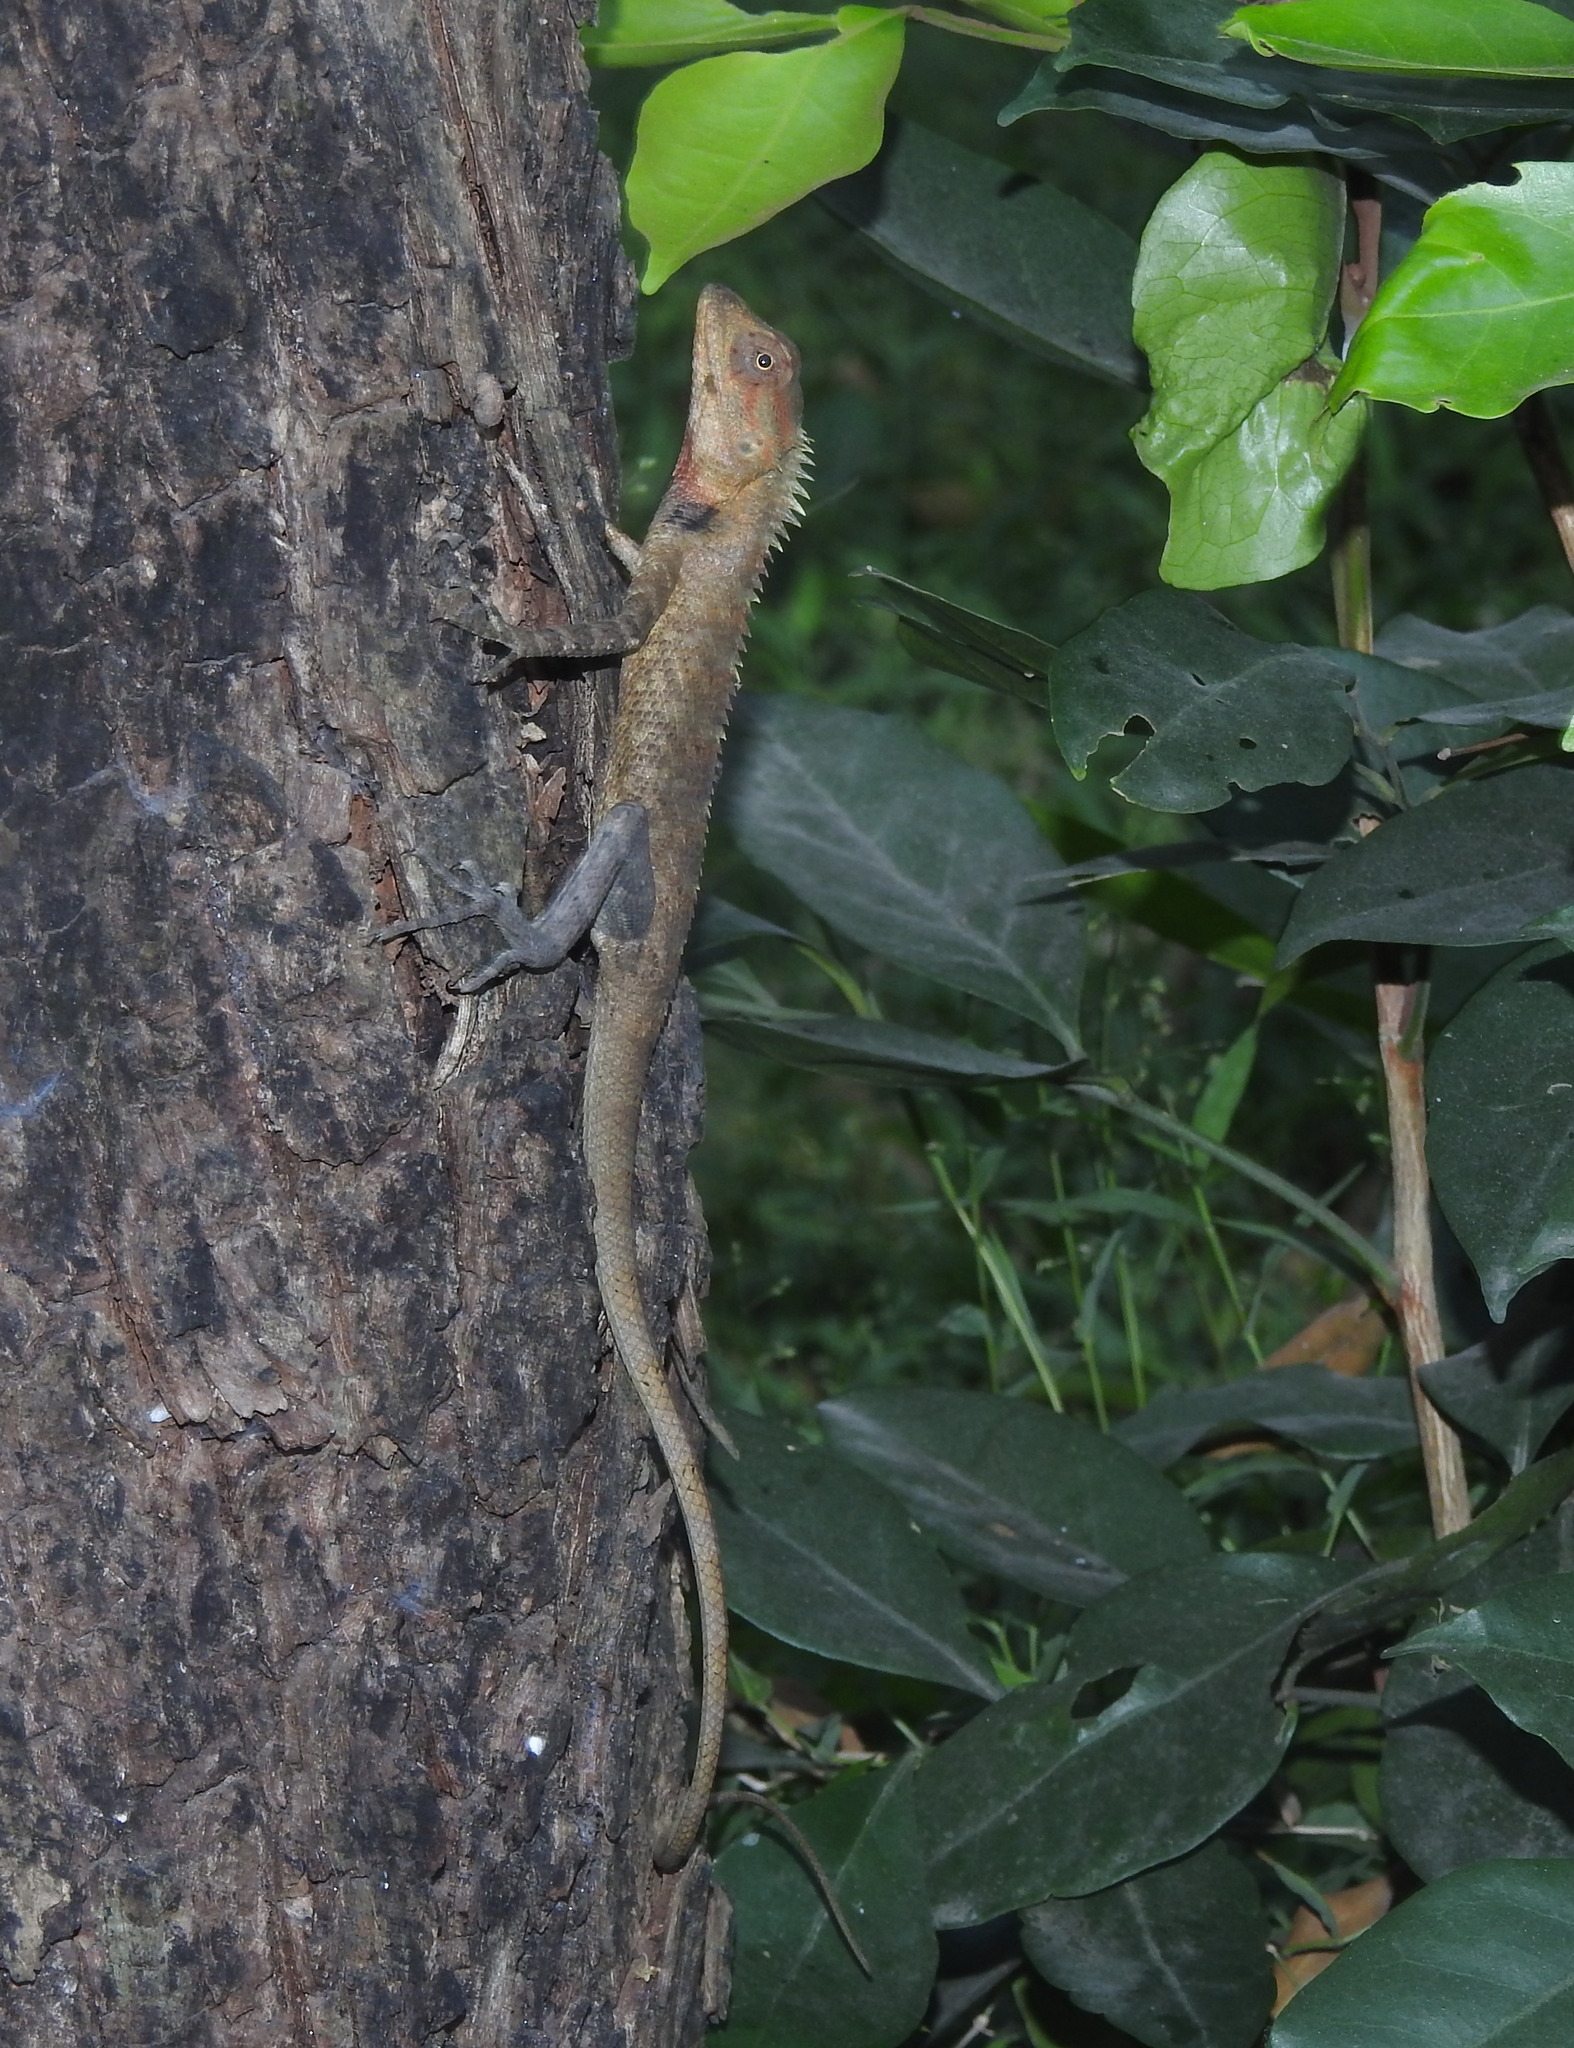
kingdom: Animalia
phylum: Chordata
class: Squamata
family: Agamidae
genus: Calotes
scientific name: Calotes versicolor
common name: Oriental garden lizard
